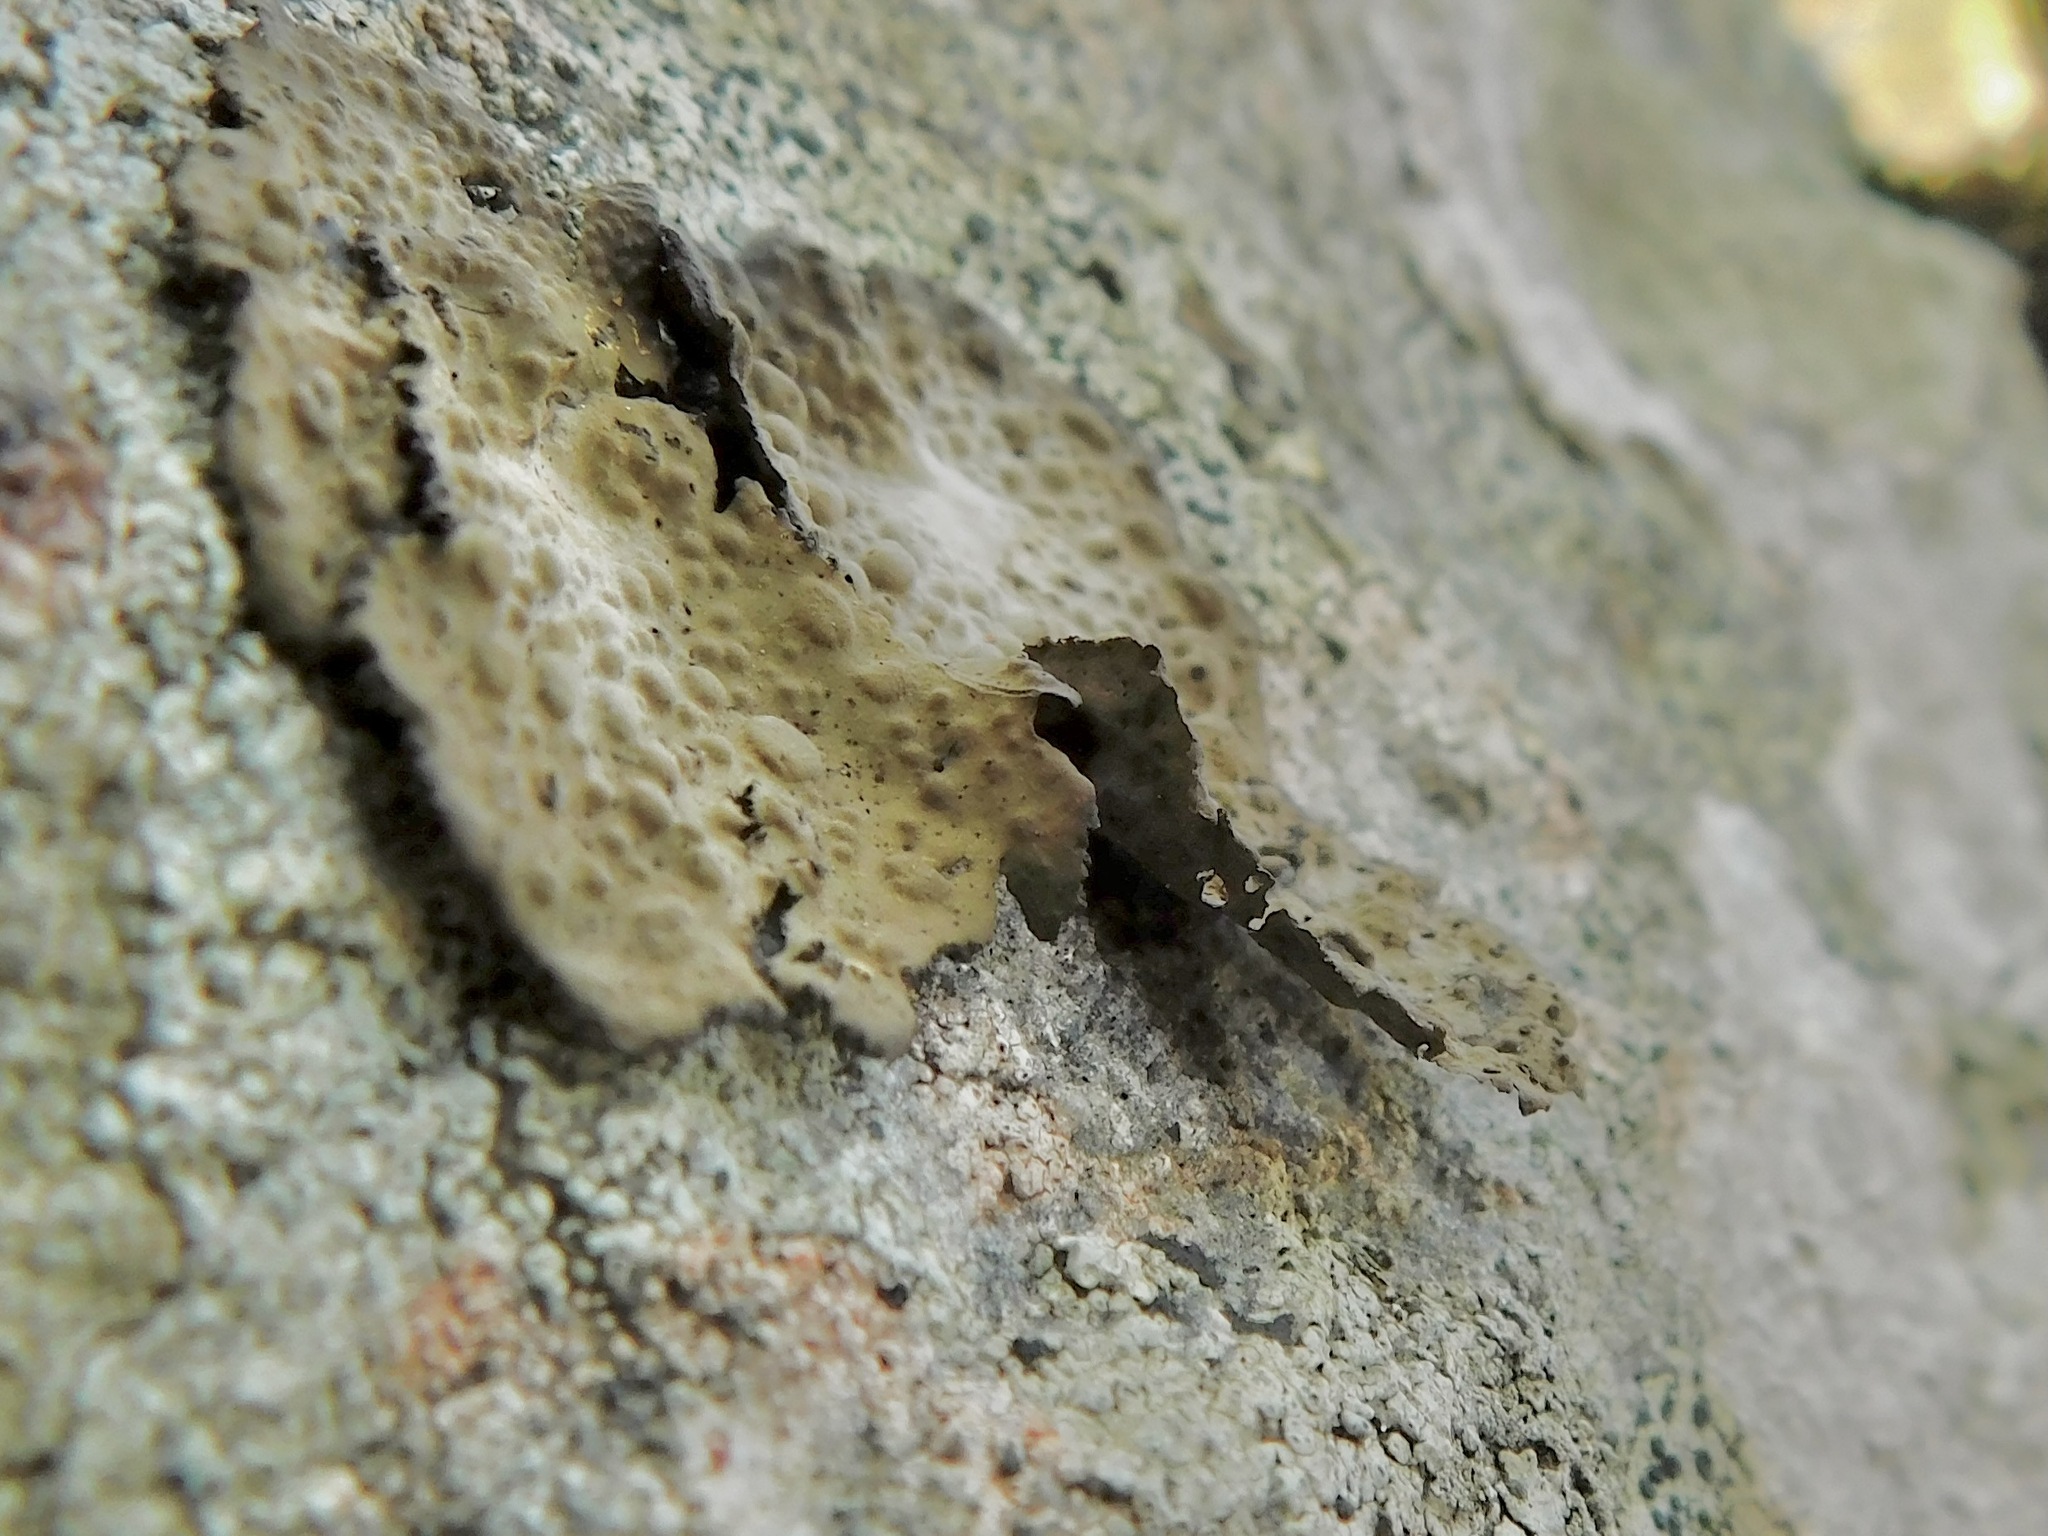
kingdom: Fungi
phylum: Ascomycota
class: Lecanoromycetes
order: Umbilicariales
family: Umbilicariaceae
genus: Lasallia
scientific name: Lasallia papulosa
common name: Common toadskin lichen
